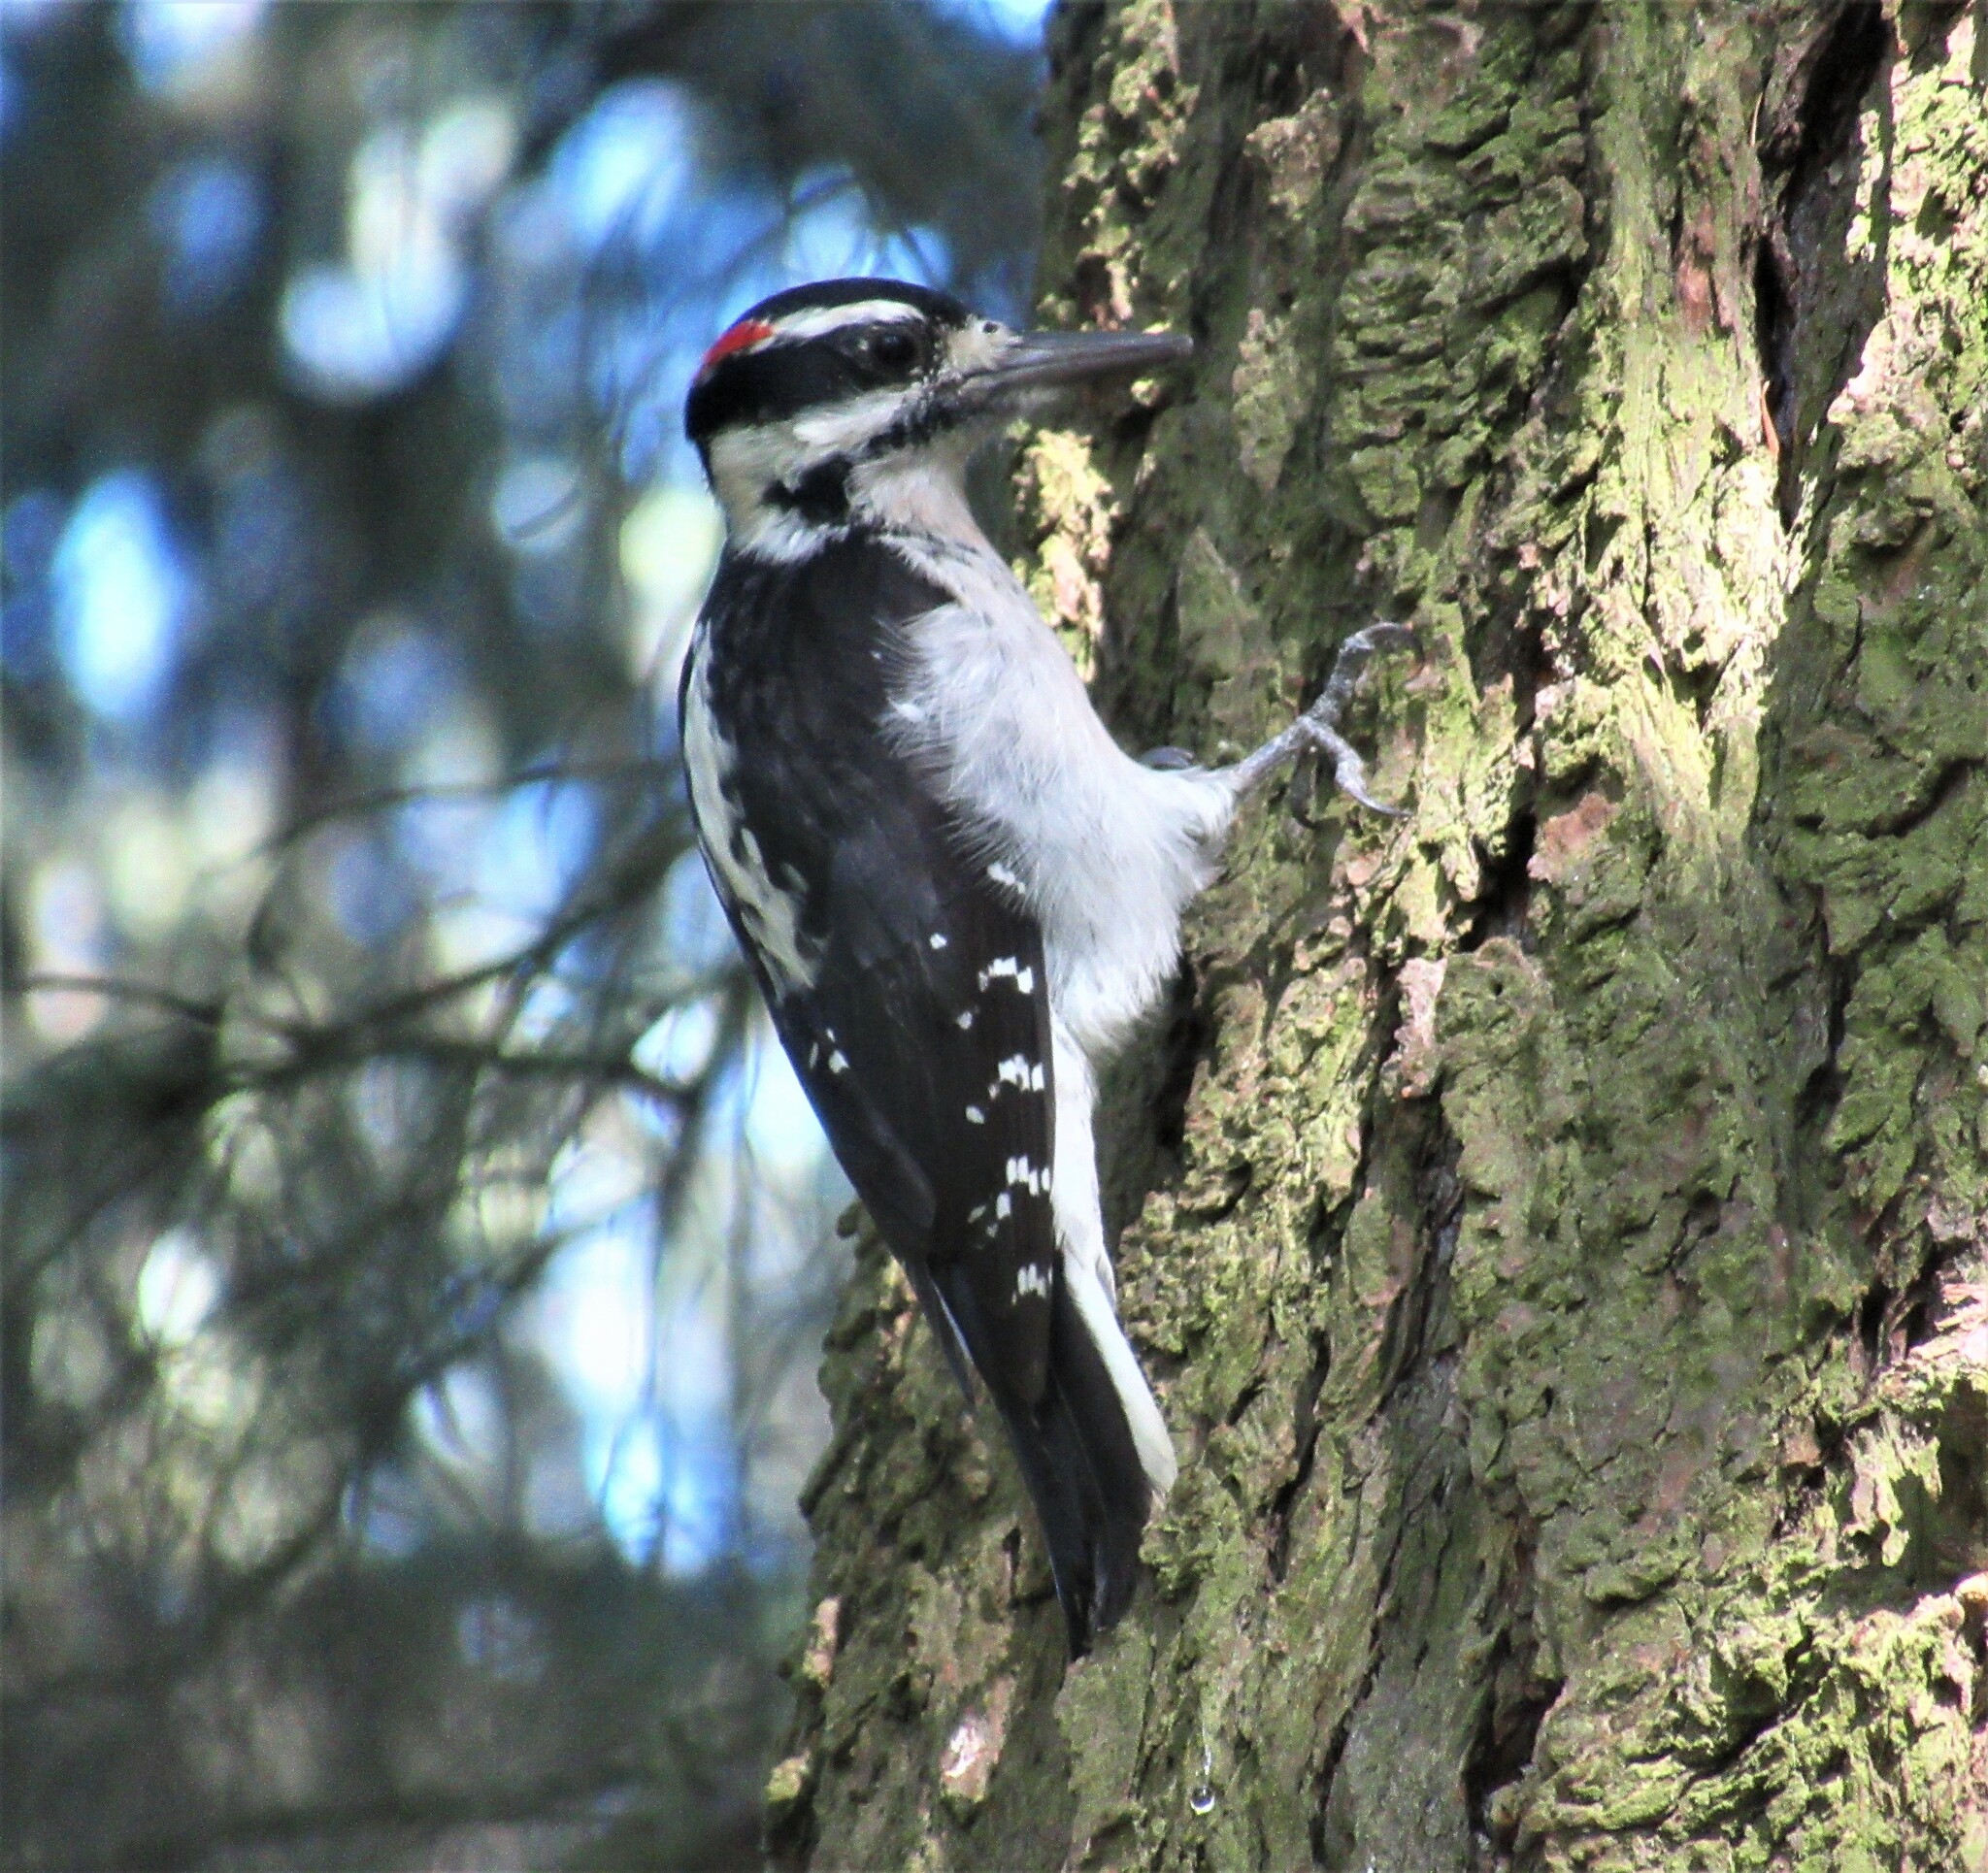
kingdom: Animalia
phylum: Chordata
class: Aves
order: Piciformes
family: Picidae
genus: Leuconotopicus
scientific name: Leuconotopicus villosus
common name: Hairy woodpecker
